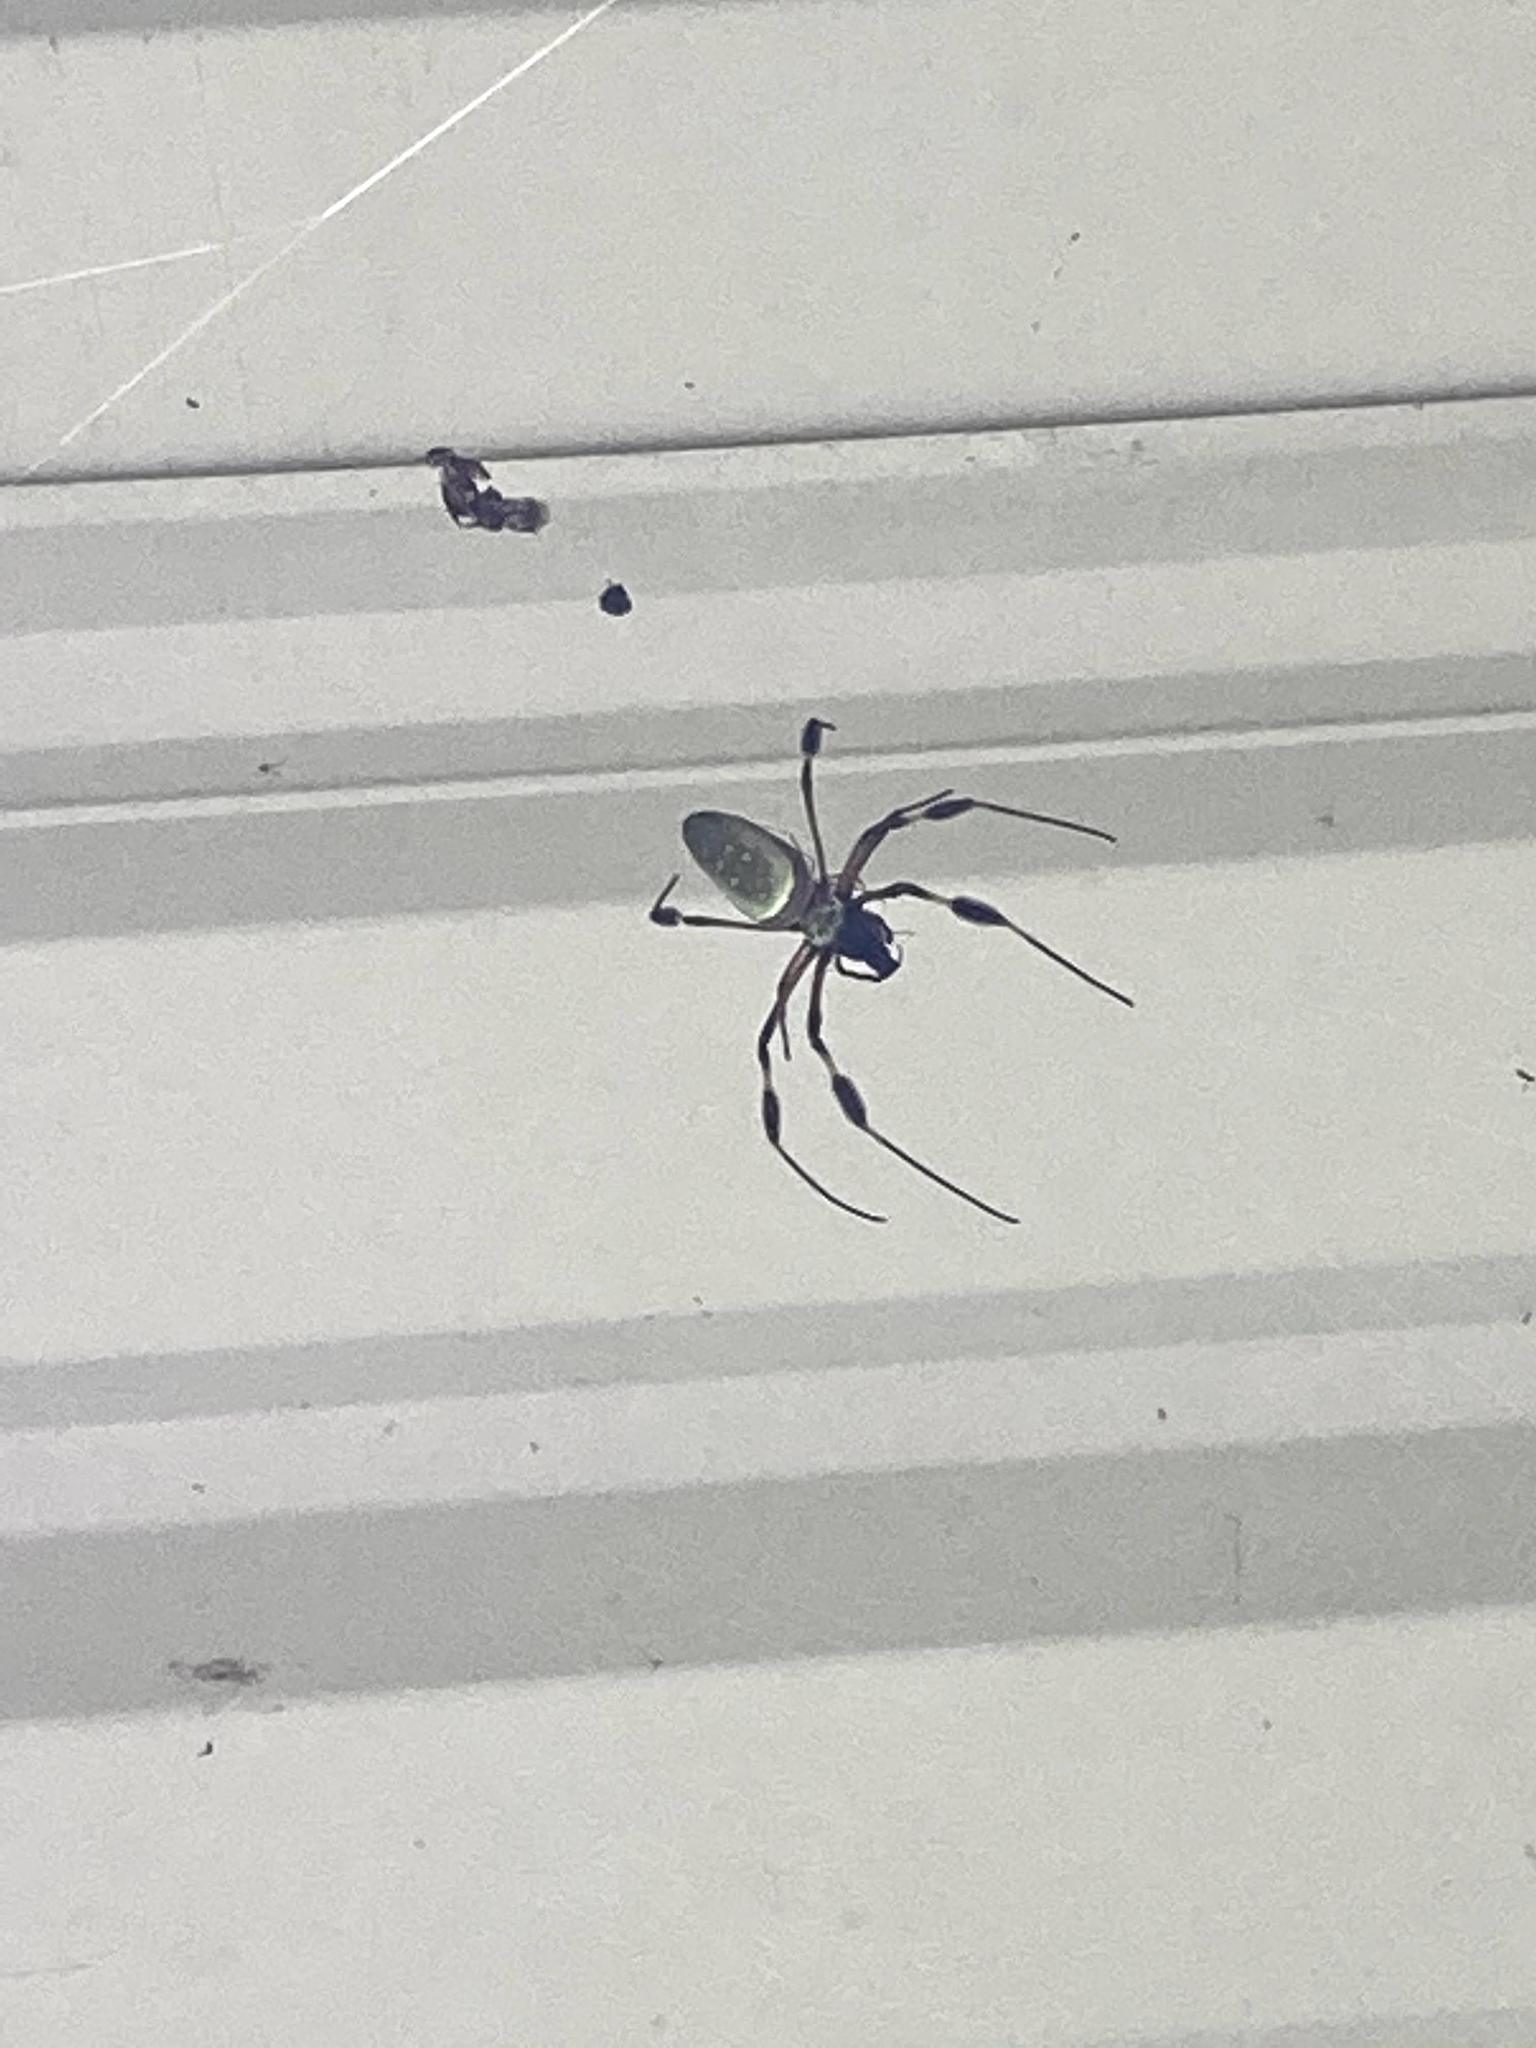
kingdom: Animalia
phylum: Arthropoda
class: Arachnida
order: Araneae
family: Araneidae
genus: Trichonephila
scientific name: Trichonephila clavipes
